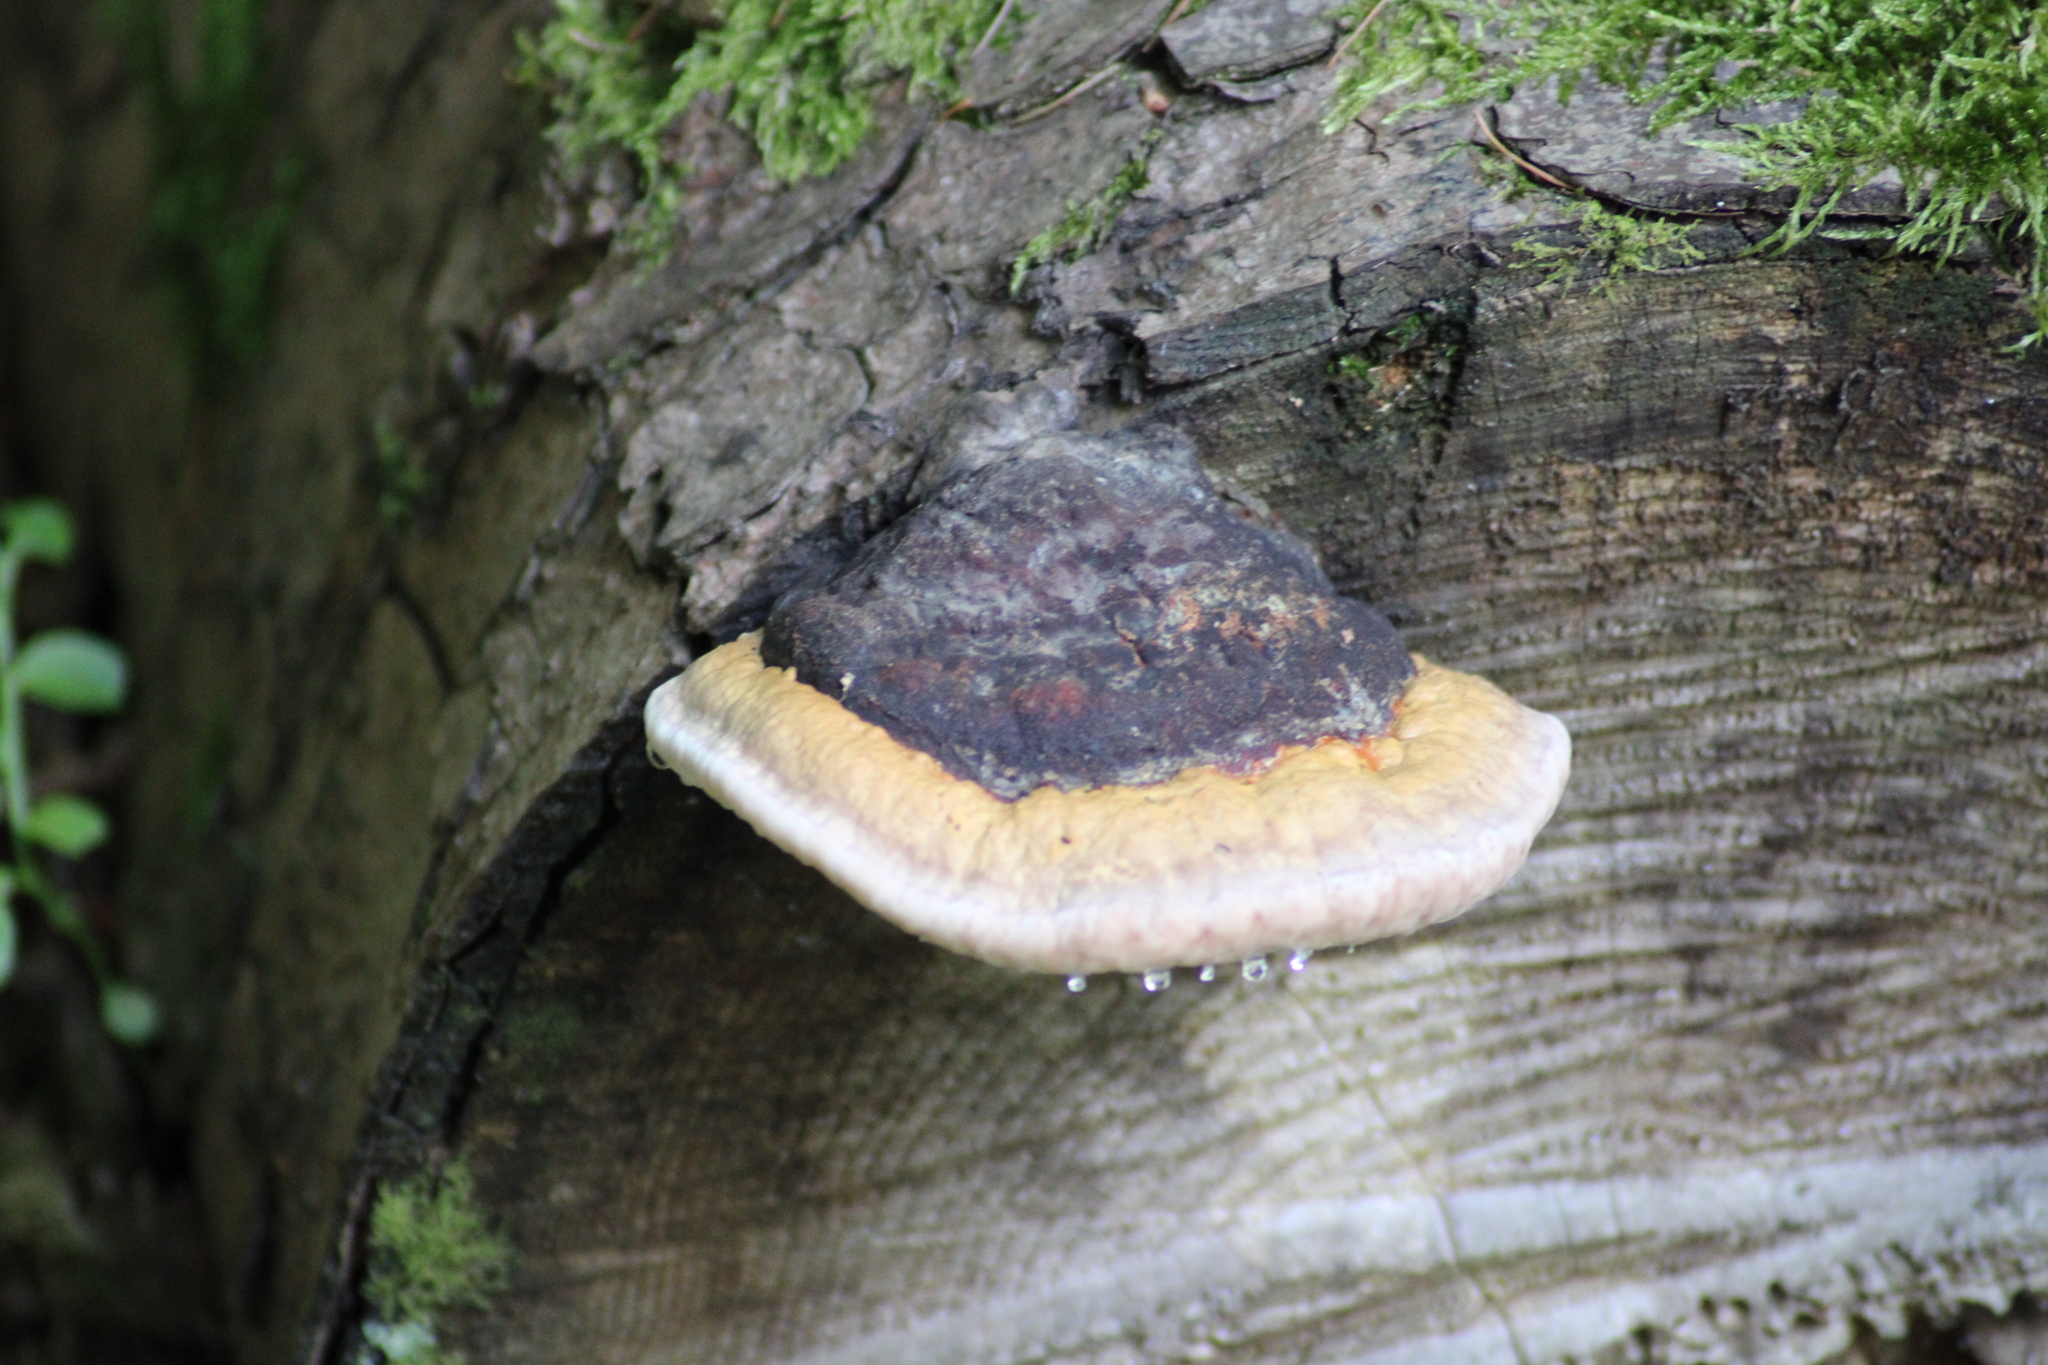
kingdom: Fungi
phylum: Basidiomycota
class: Agaricomycetes
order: Polyporales
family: Fomitopsidaceae
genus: Fomitopsis
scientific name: Fomitopsis pinicola
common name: Red-belted bracket
